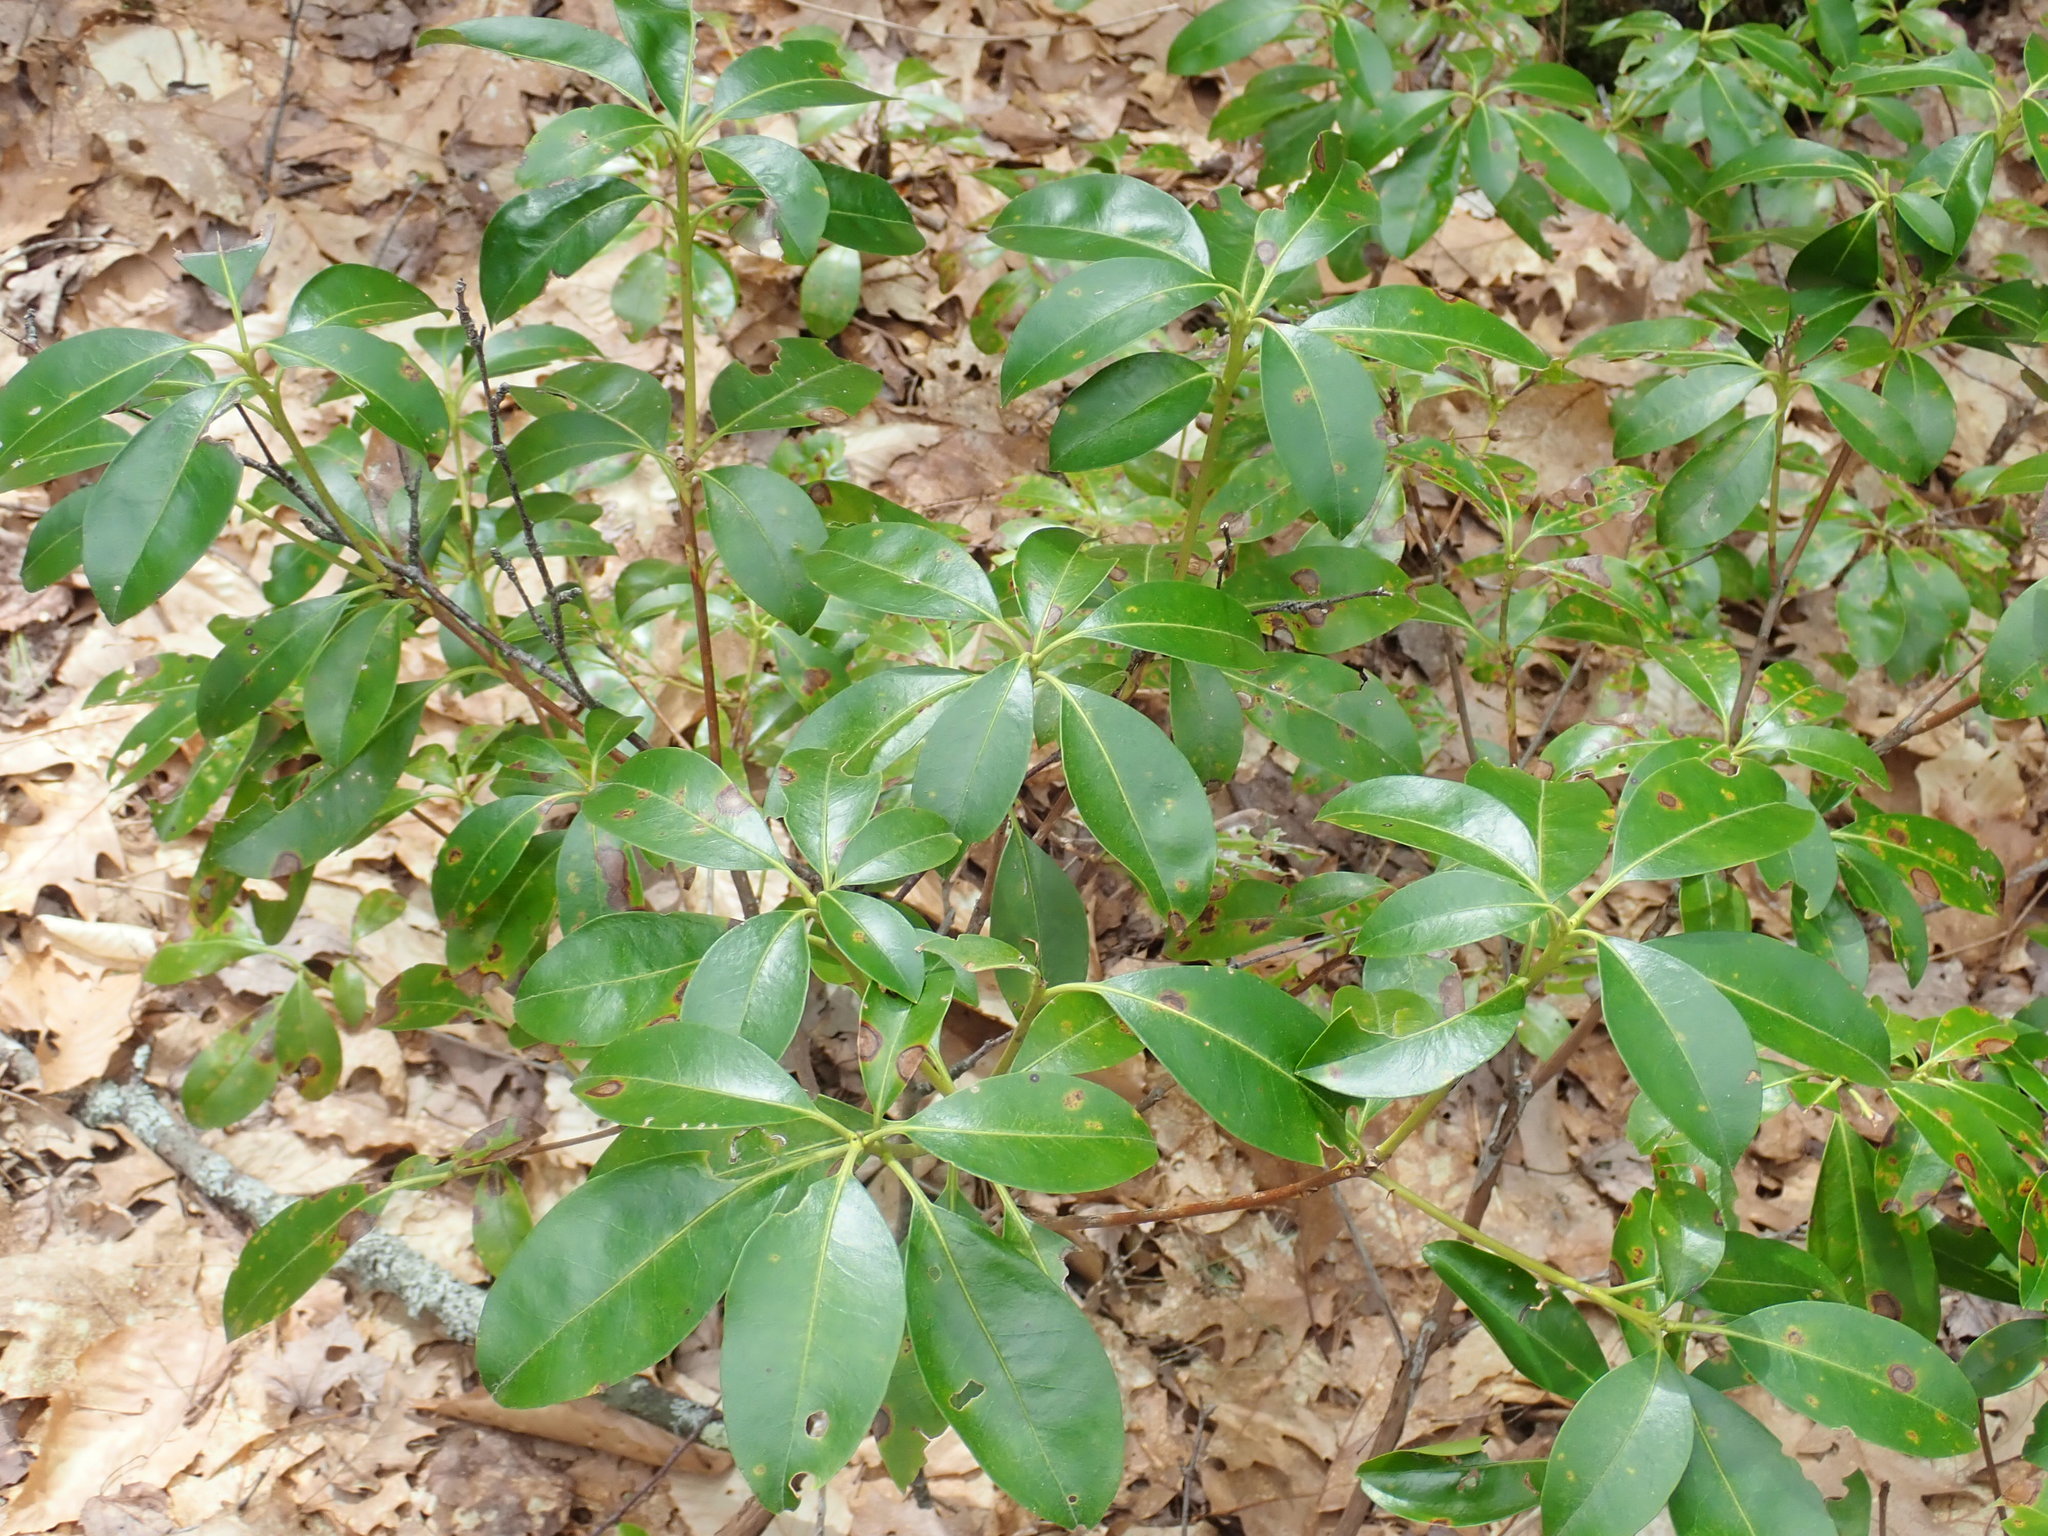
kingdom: Plantae
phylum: Tracheophyta
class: Magnoliopsida
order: Ericales
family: Ericaceae
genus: Kalmia
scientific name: Kalmia latifolia
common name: Mountain-laurel
